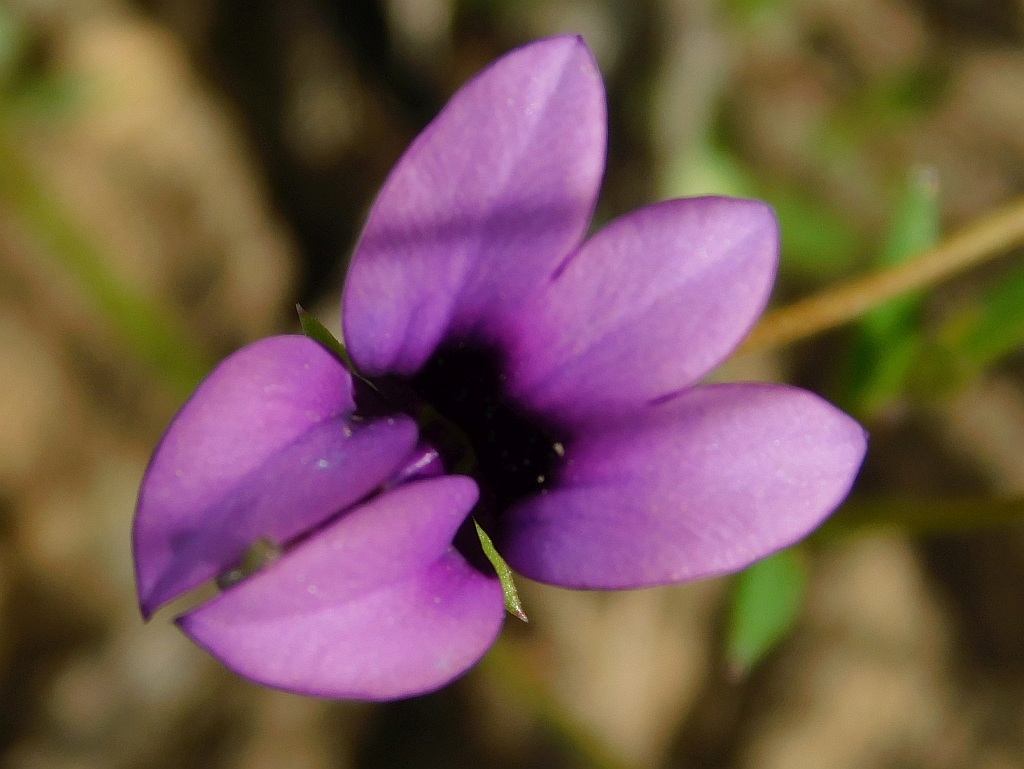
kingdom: Plantae
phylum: Tracheophyta
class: Magnoliopsida
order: Asterales
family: Campanulaceae
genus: Monopsis
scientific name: Monopsis unidentata
